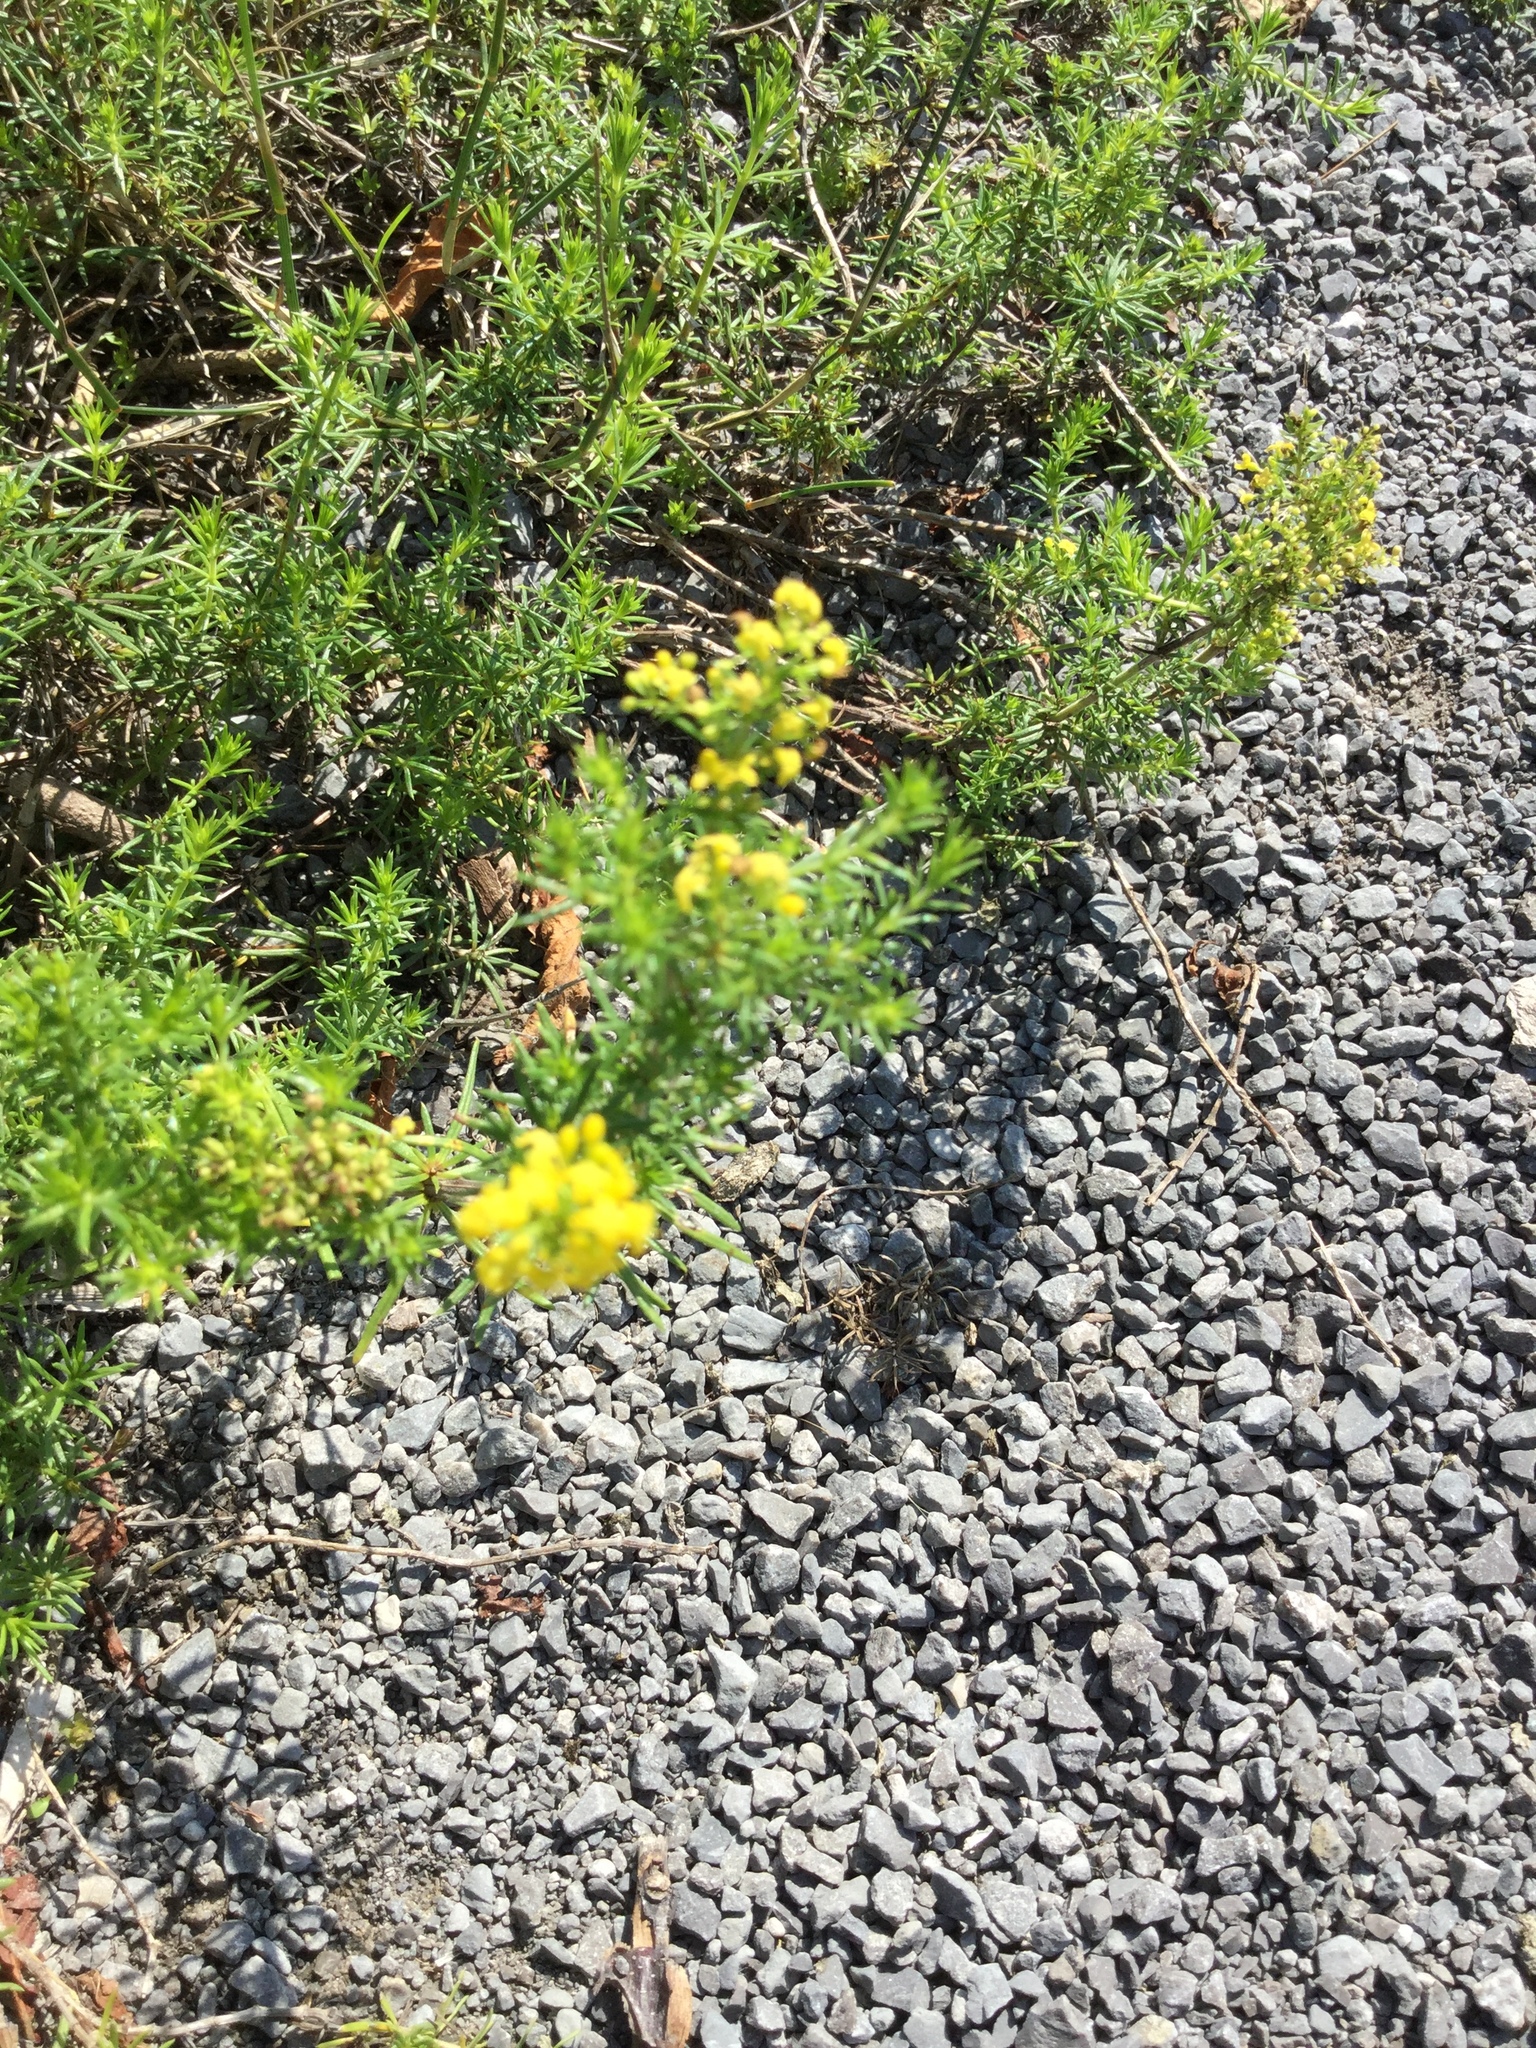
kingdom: Plantae
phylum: Tracheophyta
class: Magnoliopsida
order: Gentianales
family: Rubiaceae
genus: Galium
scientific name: Galium verum
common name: Lady's bedstraw
